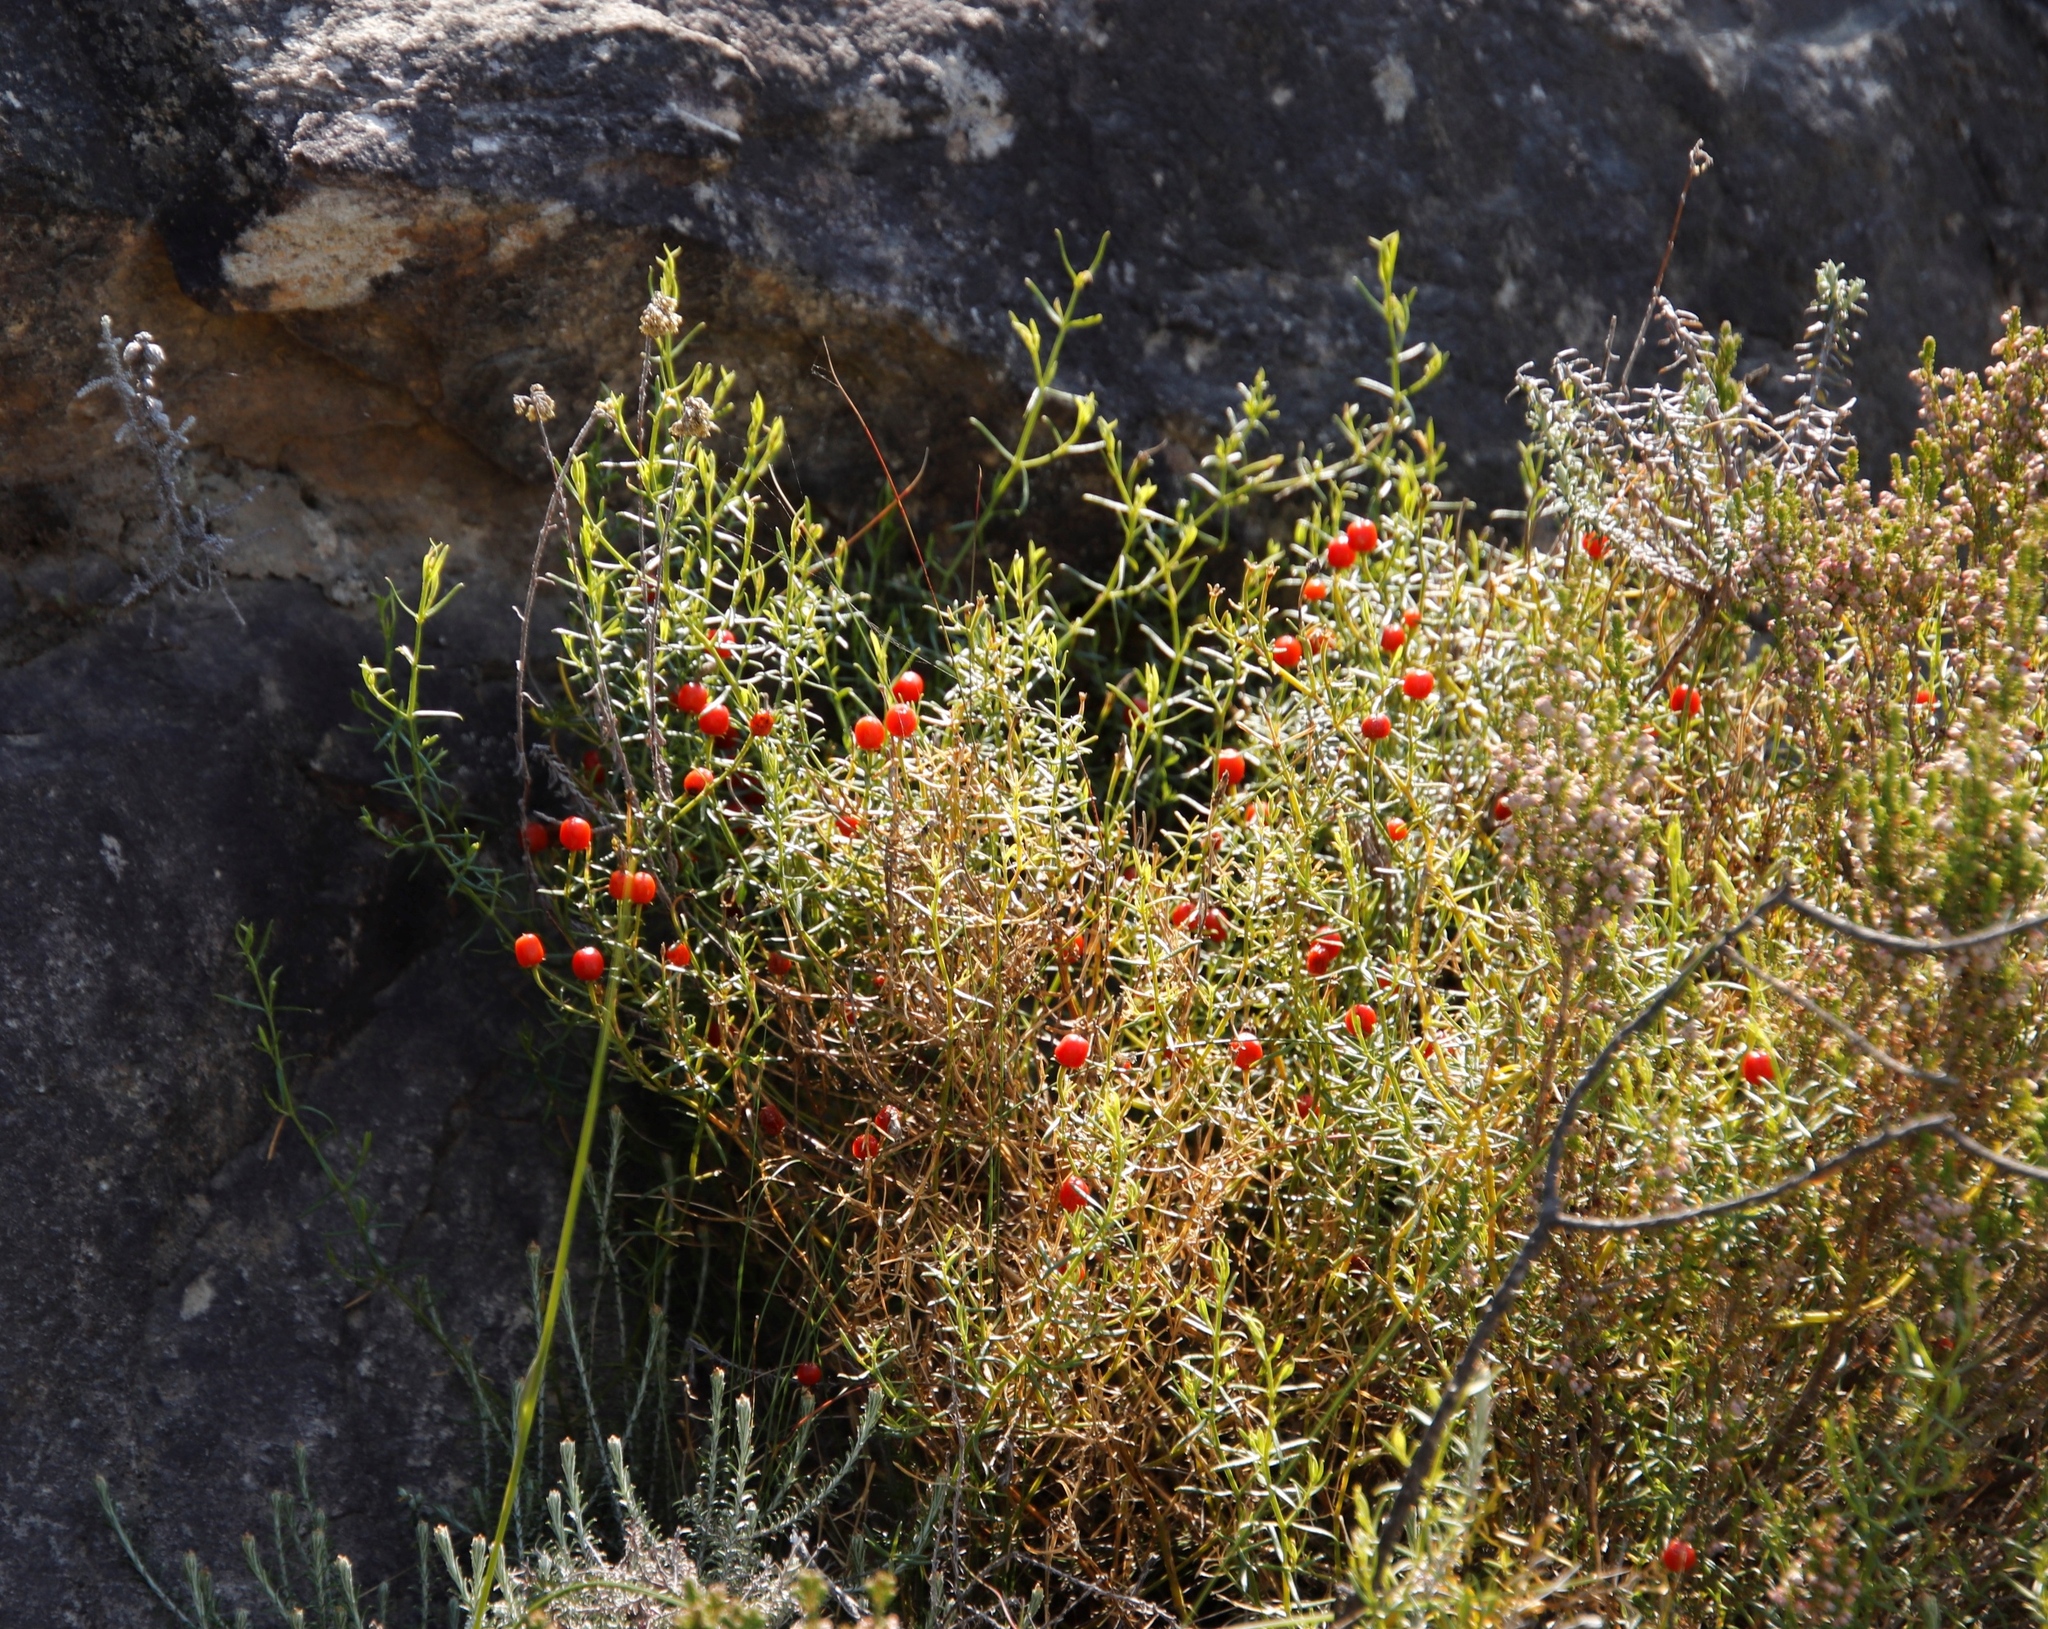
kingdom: Plantae
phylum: Tracheophyta
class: Magnoliopsida
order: Gentianales
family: Gentianaceae
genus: Chironia
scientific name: Chironia baccifera
